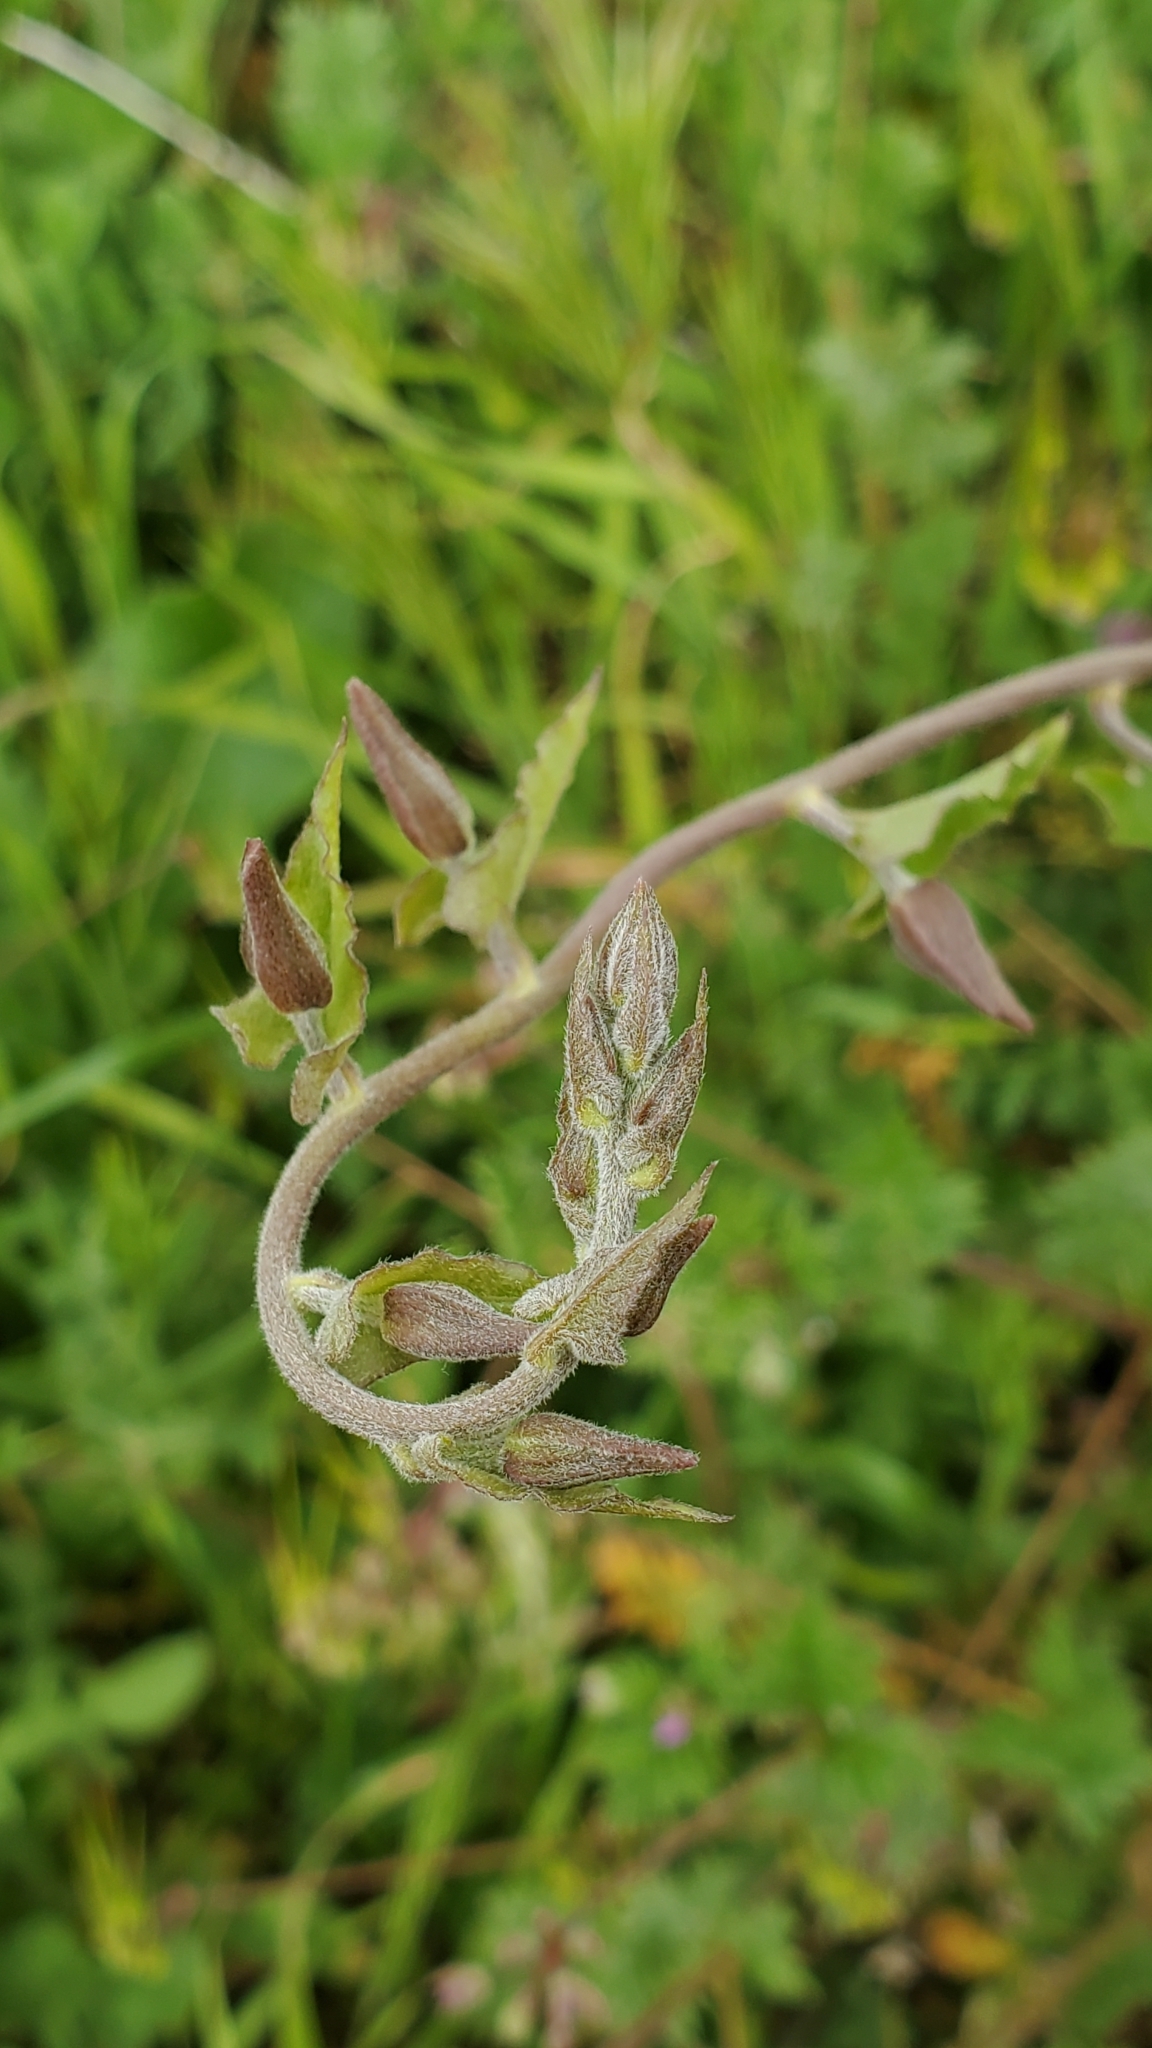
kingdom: Plantae
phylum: Tracheophyta
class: Magnoliopsida
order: Solanales
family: Convolvulaceae
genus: Calystegia
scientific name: Calystegia macrostegia
